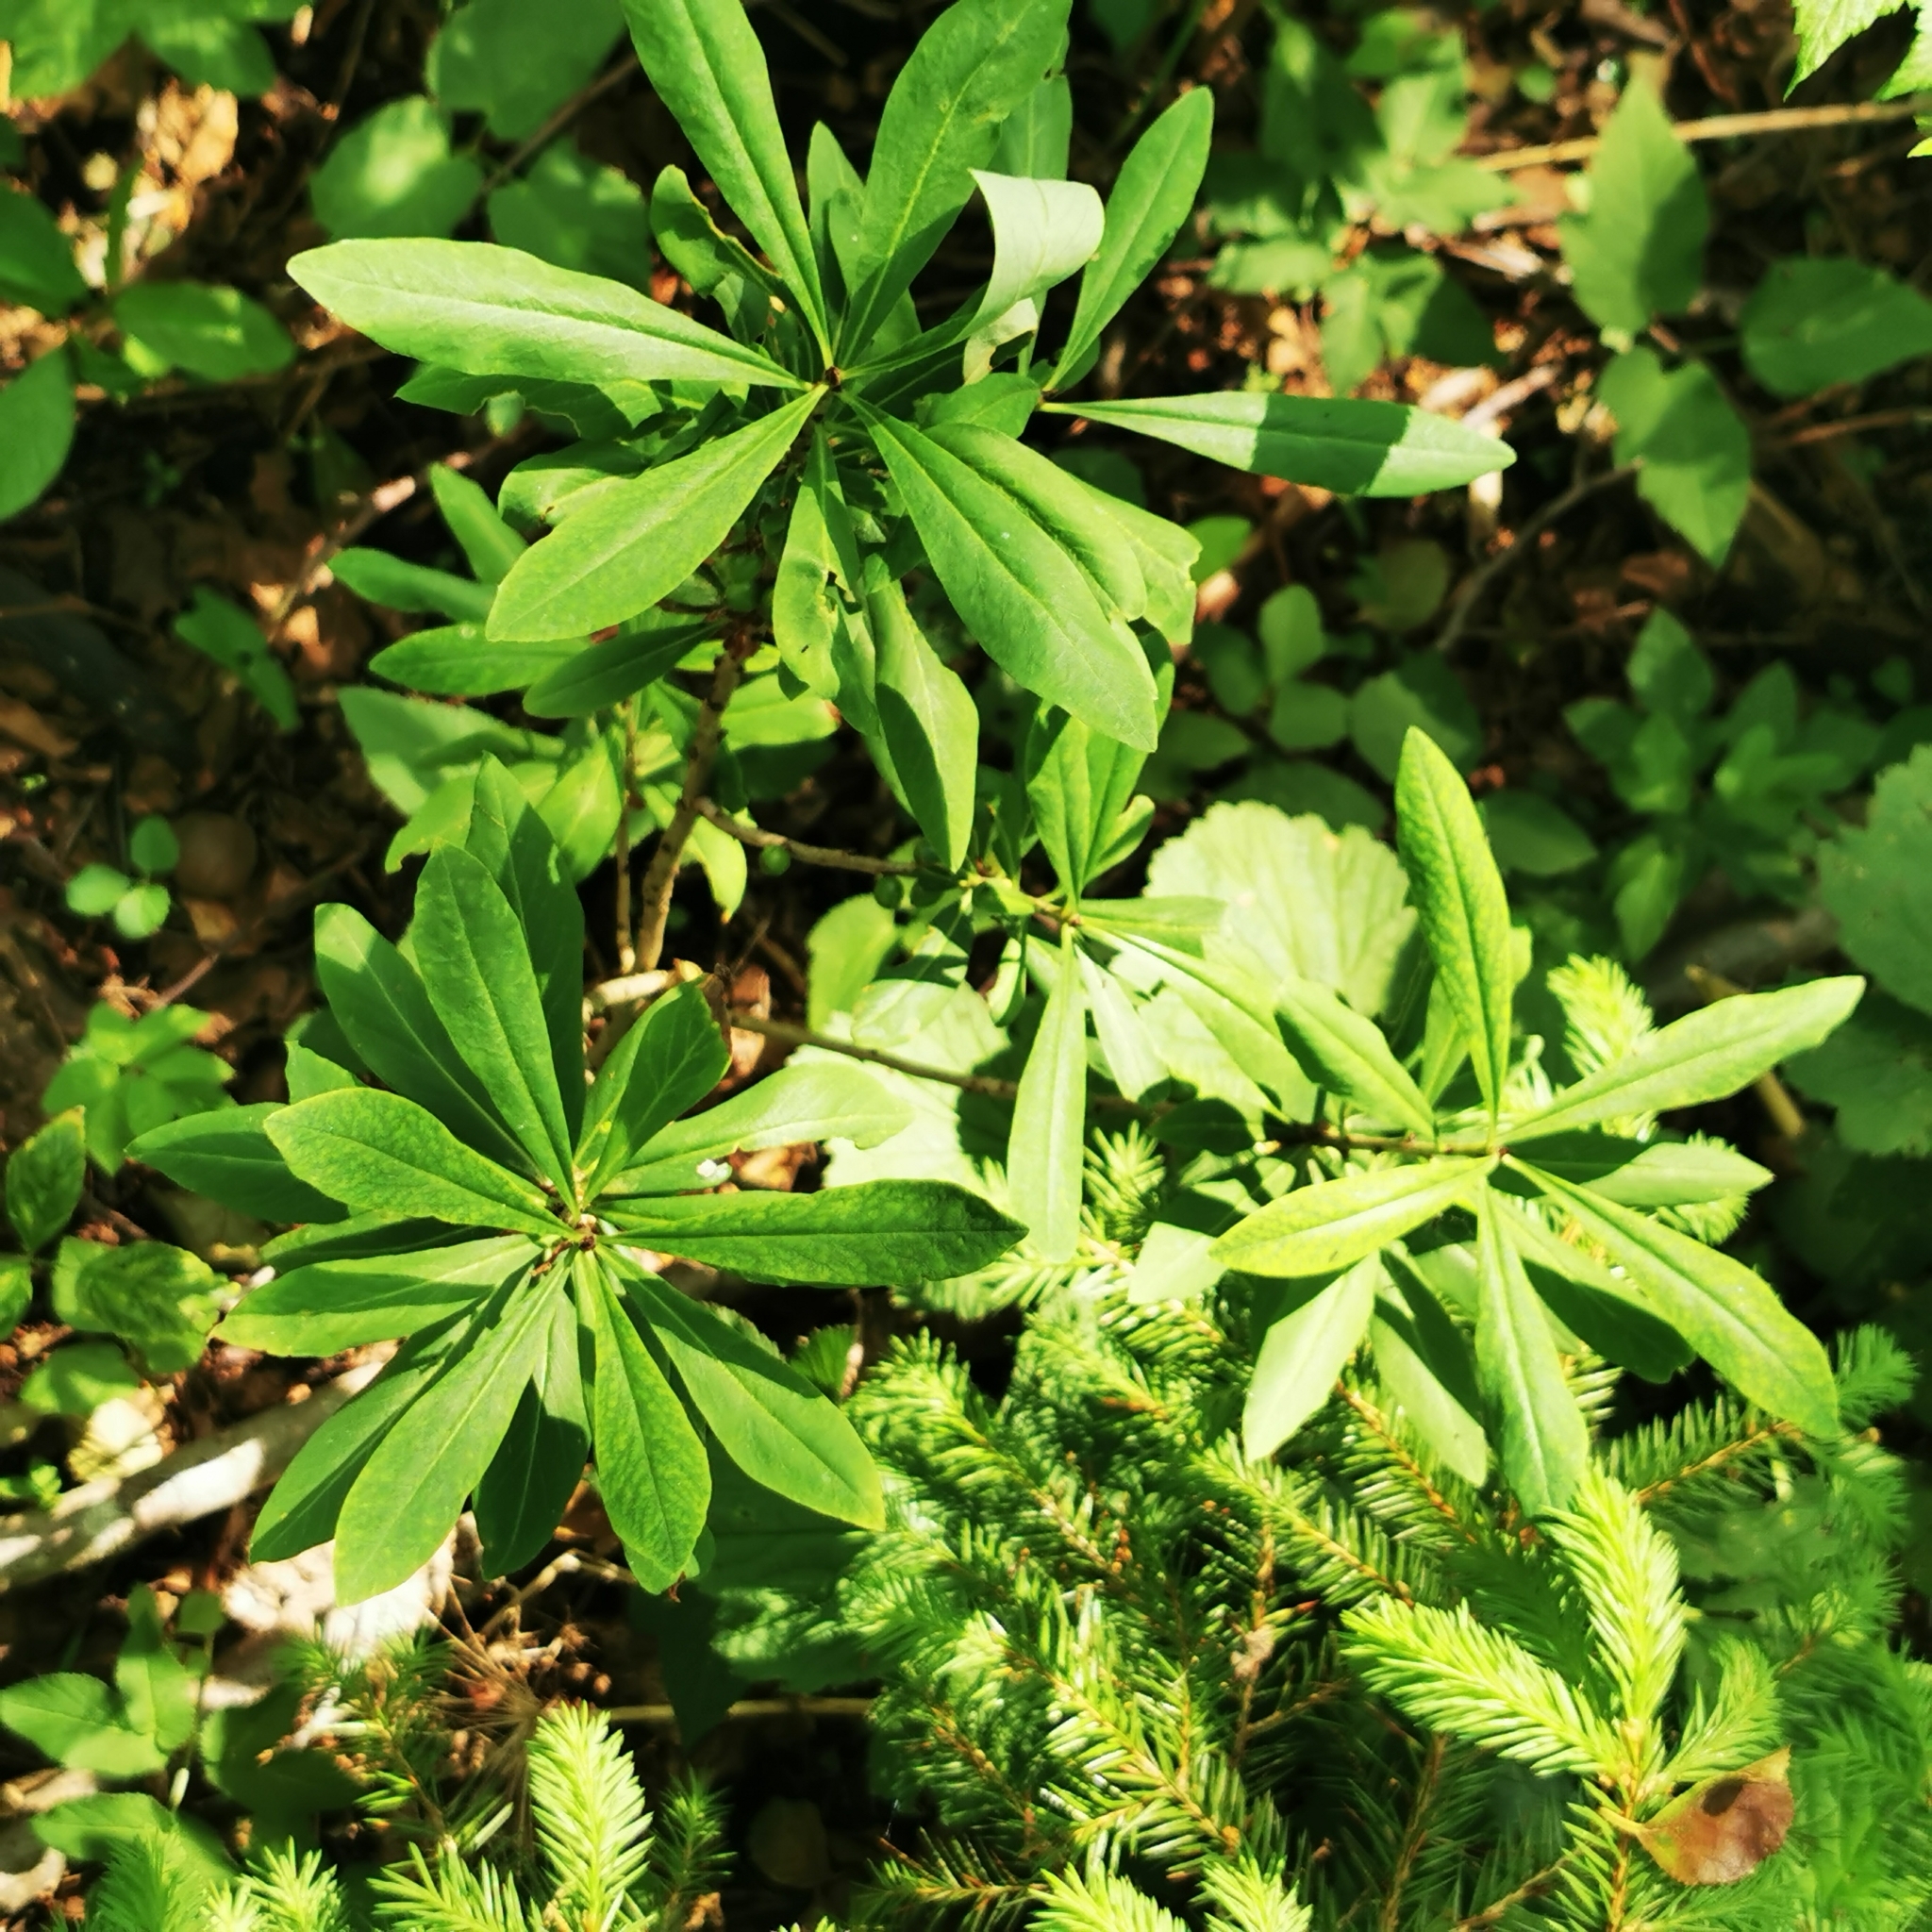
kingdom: Plantae
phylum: Tracheophyta
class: Magnoliopsida
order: Malvales
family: Thymelaeaceae
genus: Daphne
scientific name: Daphne mezereum
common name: Mezereon
